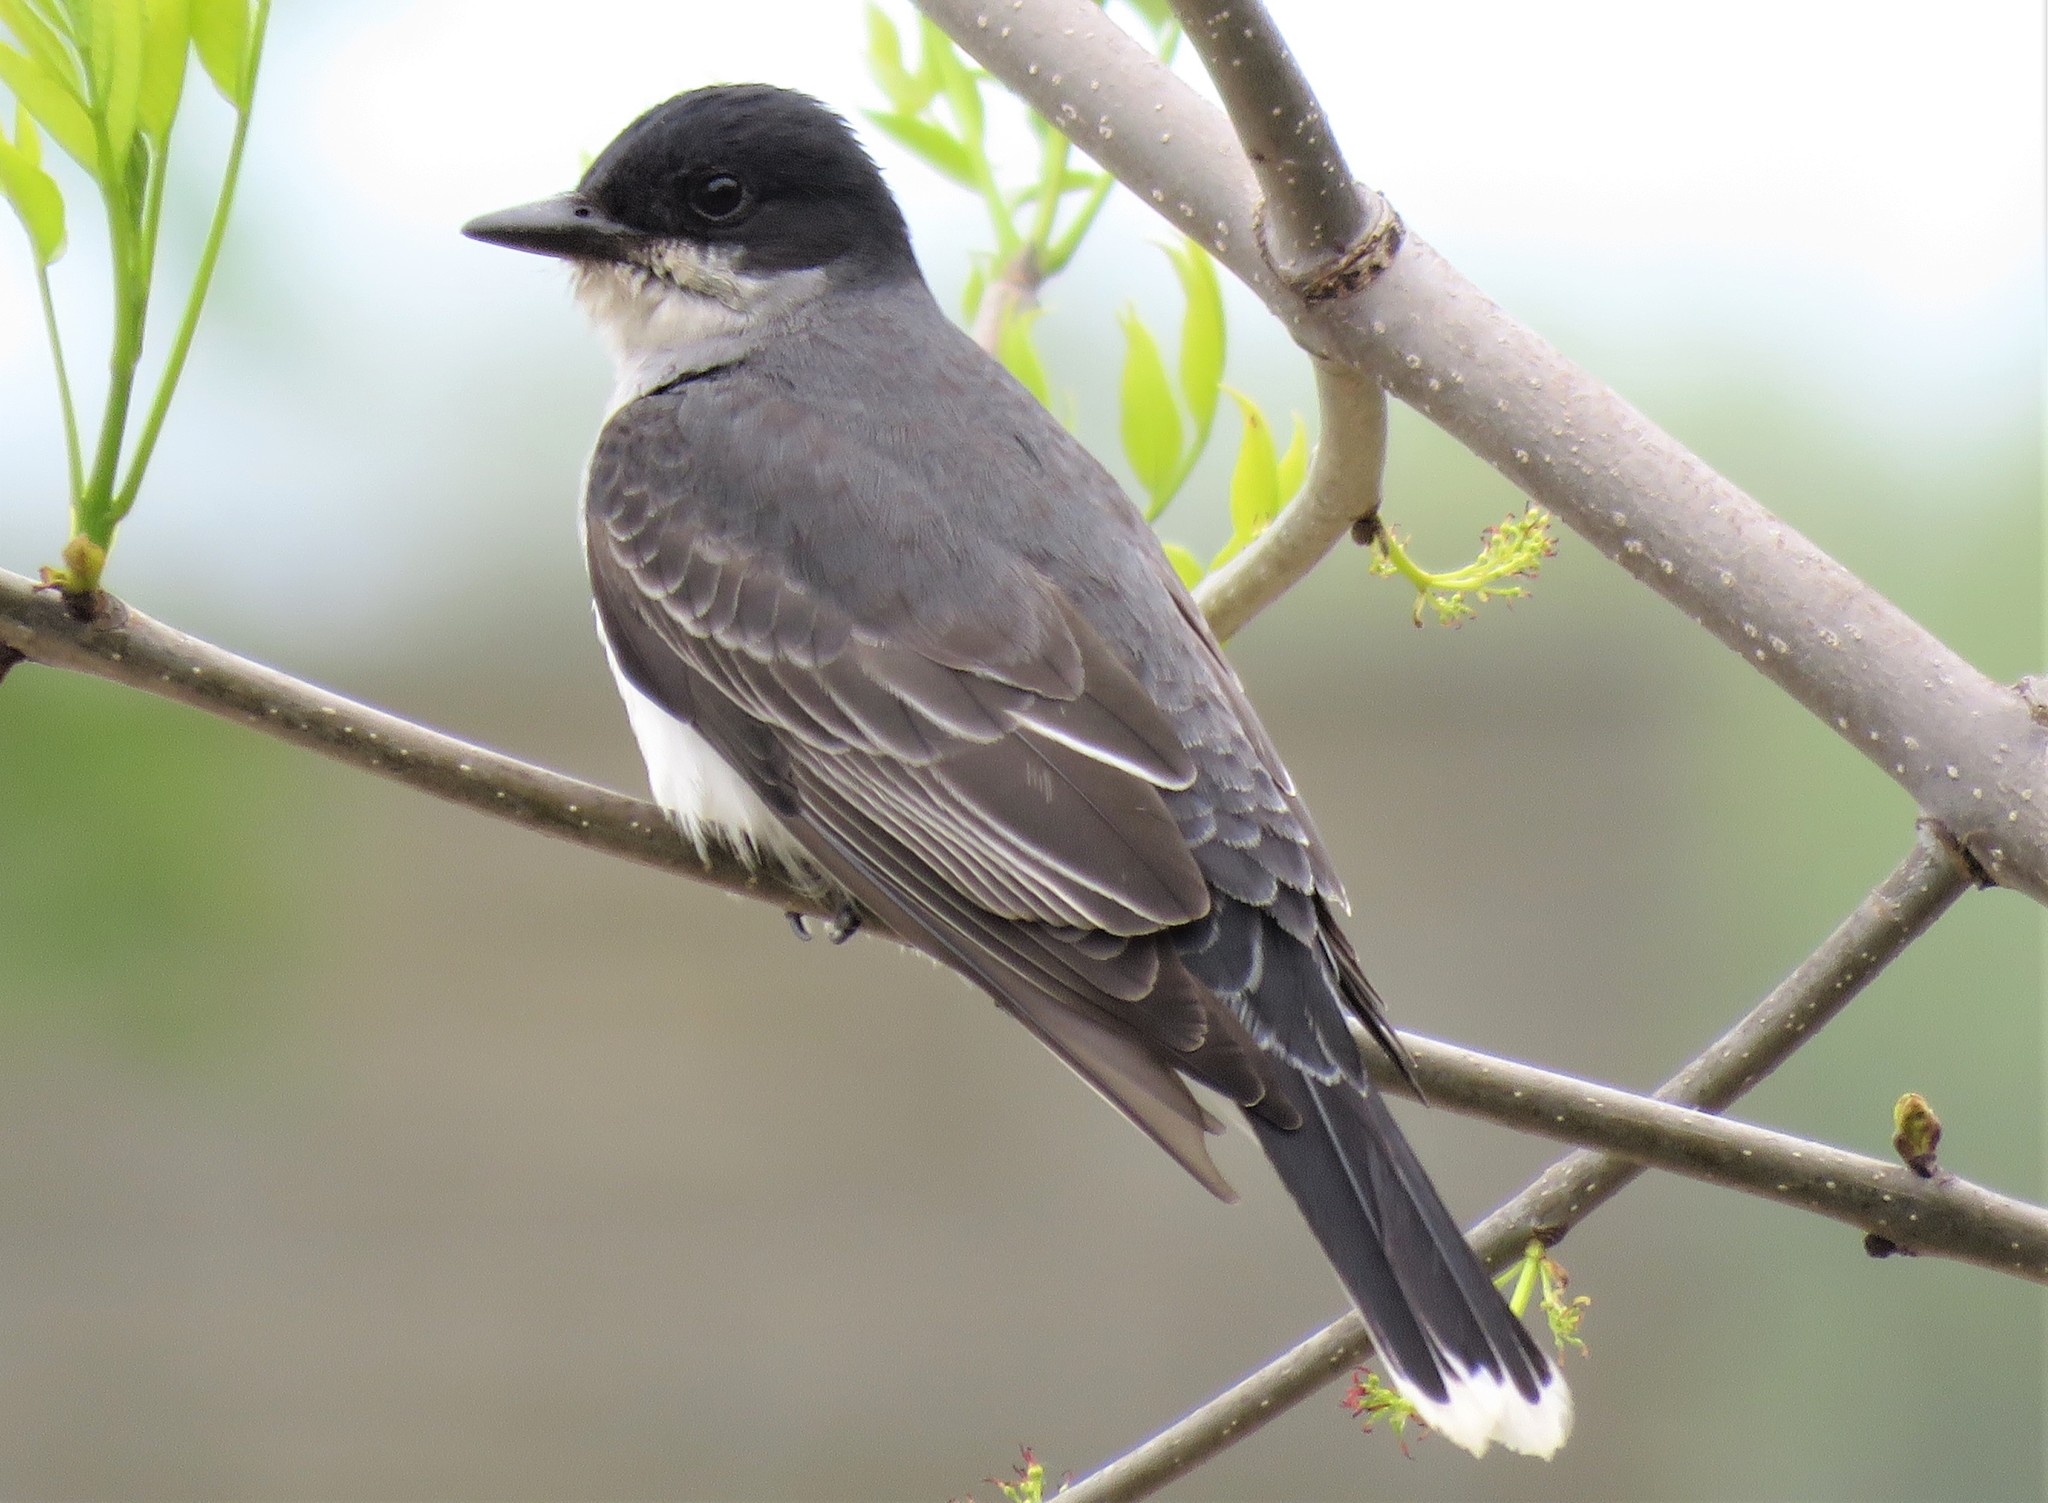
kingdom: Animalia
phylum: Chordata
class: Aves
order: Passeriformes
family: Tyrannidae
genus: Tyrannus
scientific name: Tyrannus tyrannus
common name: Eastern kingbird
